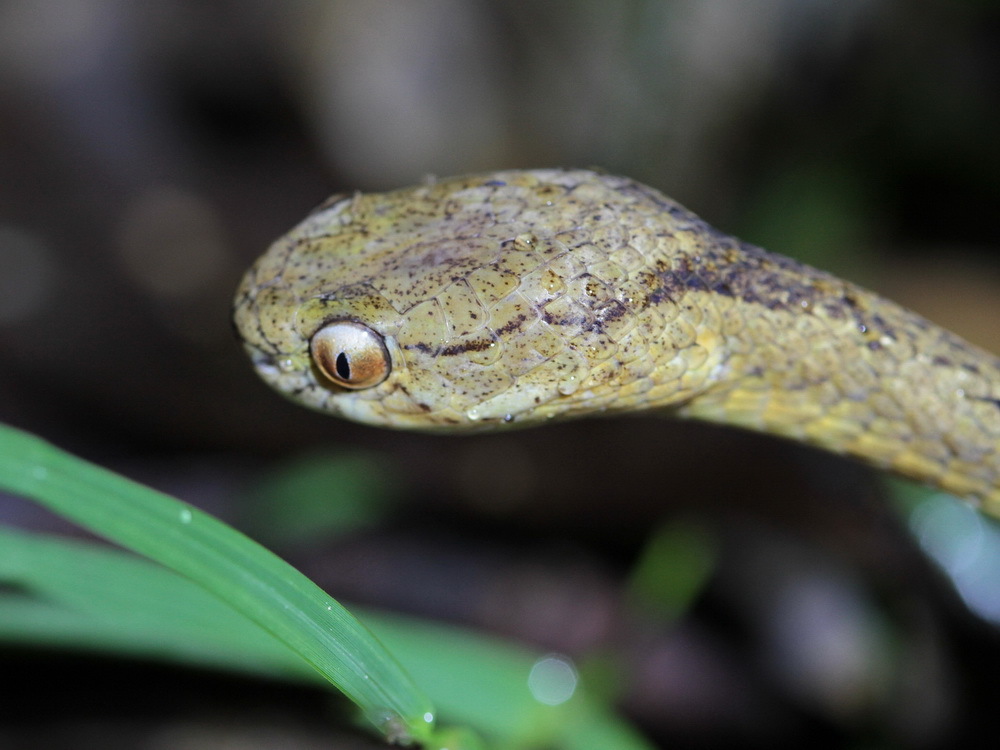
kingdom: Animalia
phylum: Chordata
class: Squamata
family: Pareidae
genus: Pareas
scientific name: Pareas carinatus
